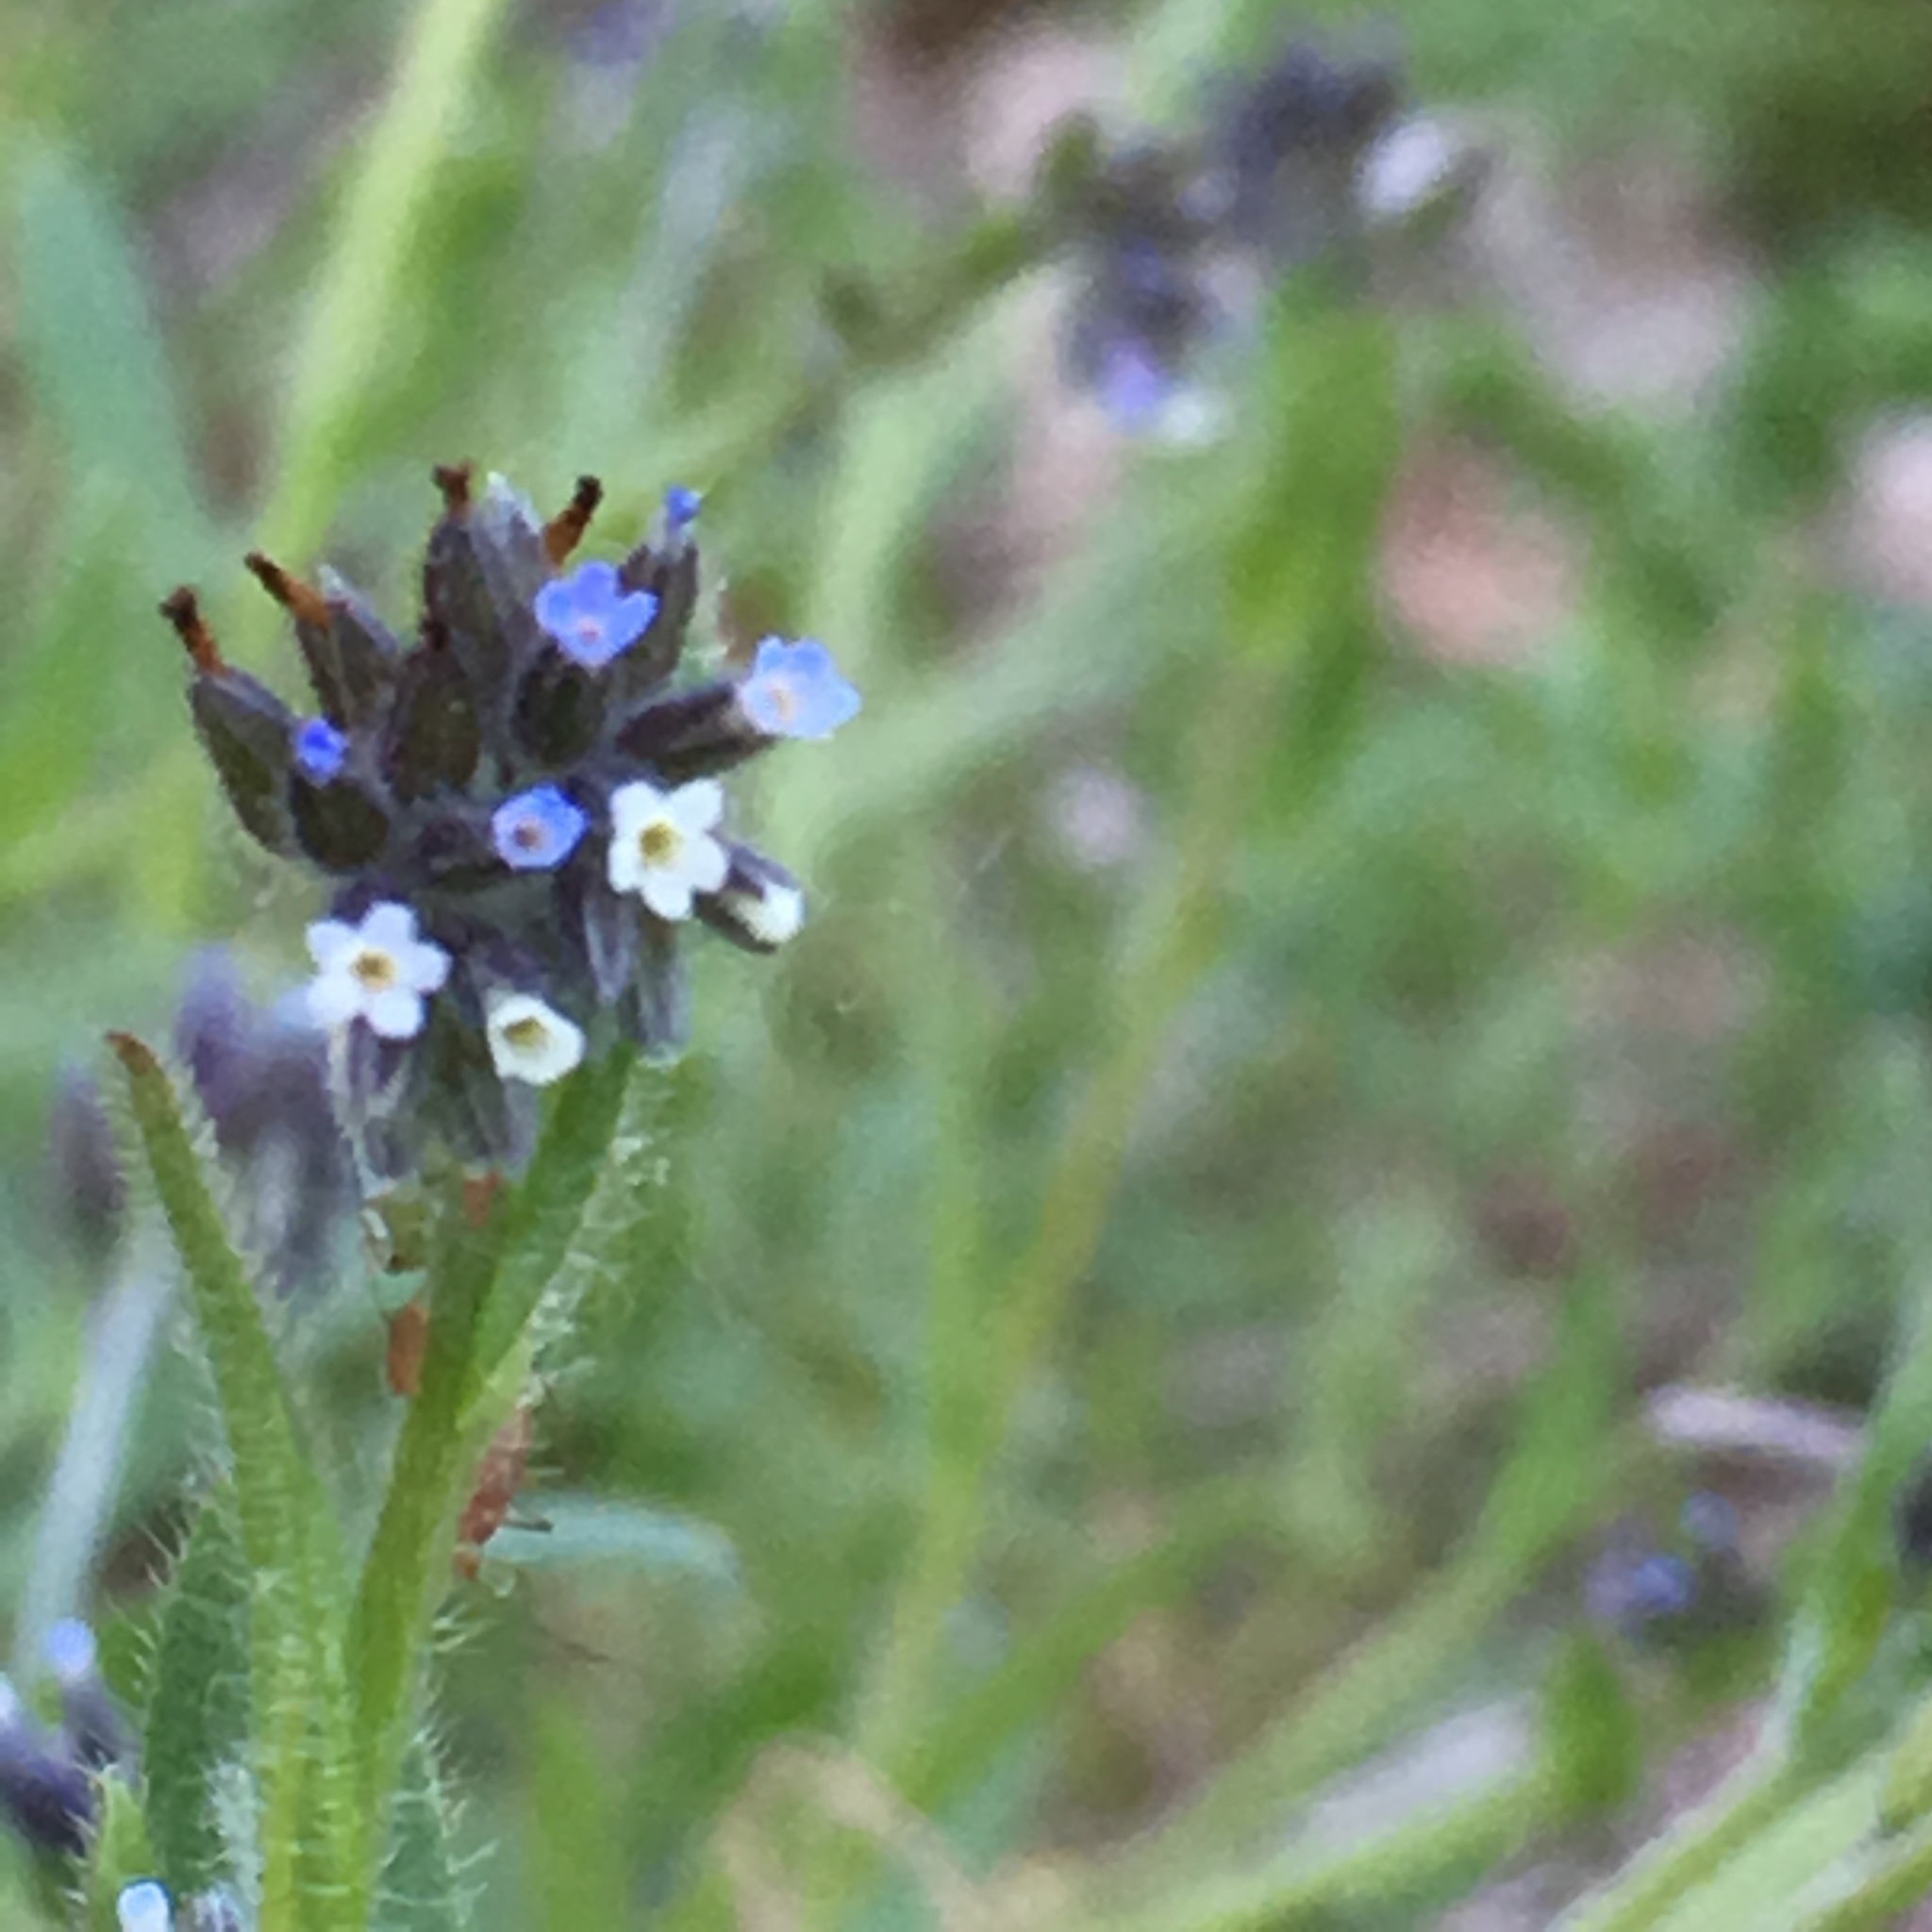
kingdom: Plantae
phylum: Tracheophyta
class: Magnoliopsida
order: Boraginales
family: Boraginaceae
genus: Myosotis
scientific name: Myosotis discolor
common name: Changing forget-me-not
